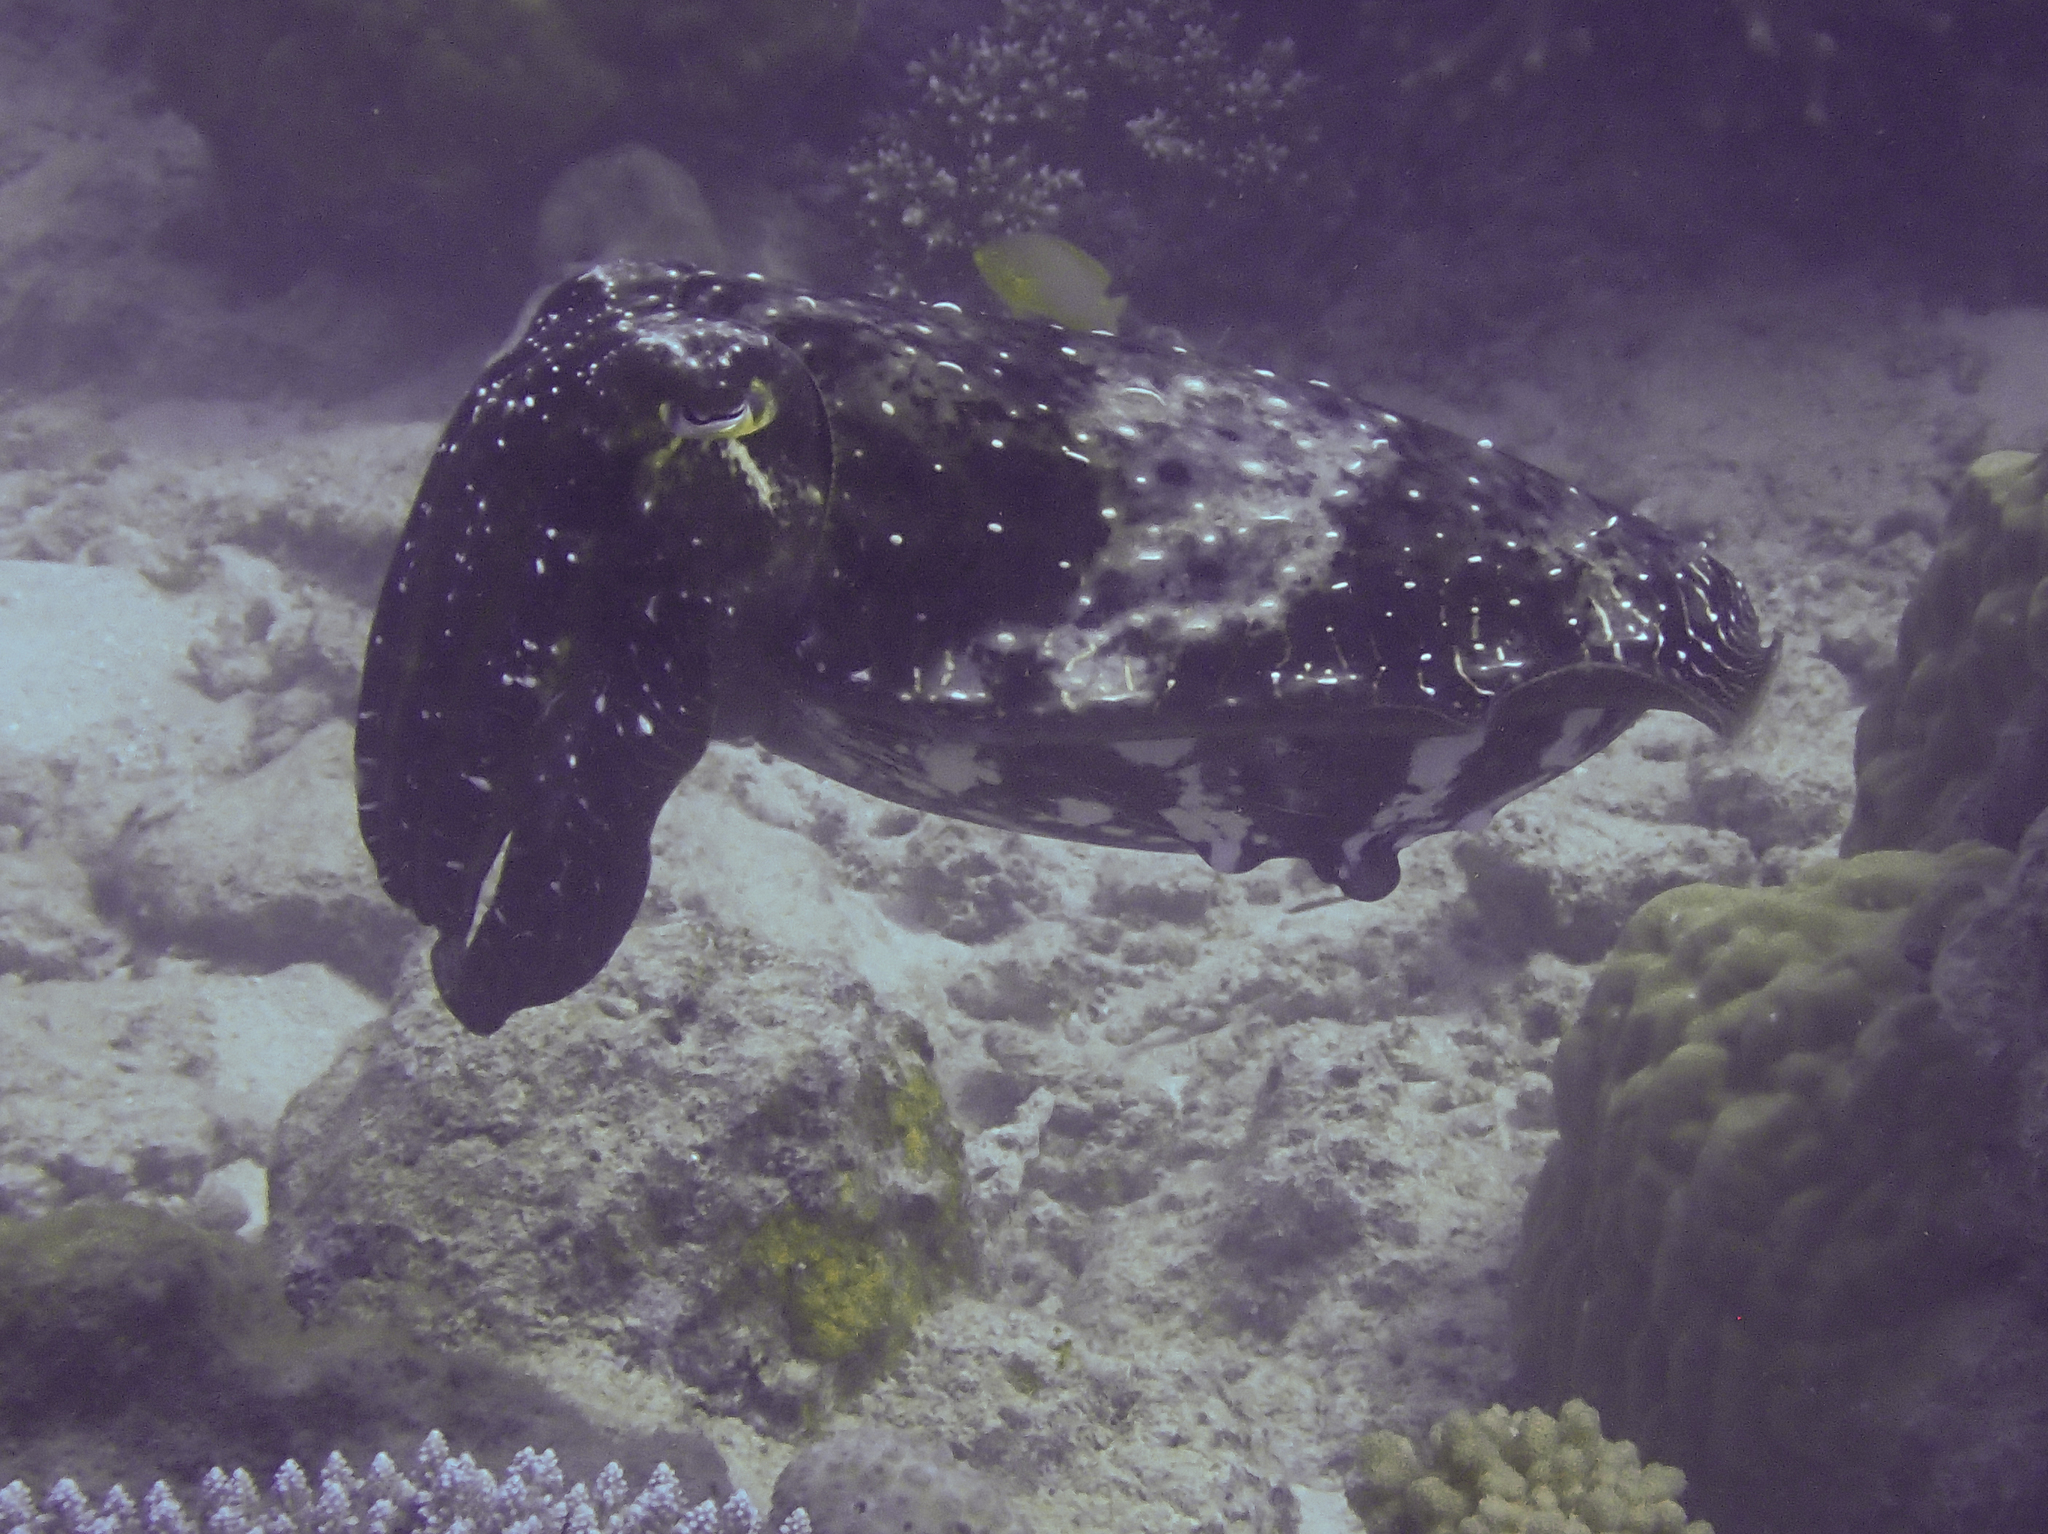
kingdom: Animalia
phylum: Mollusca
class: Cephalopoda
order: Sepiida
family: Sepiidae
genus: Ascarosepion
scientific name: Ascarosepion latimanus
